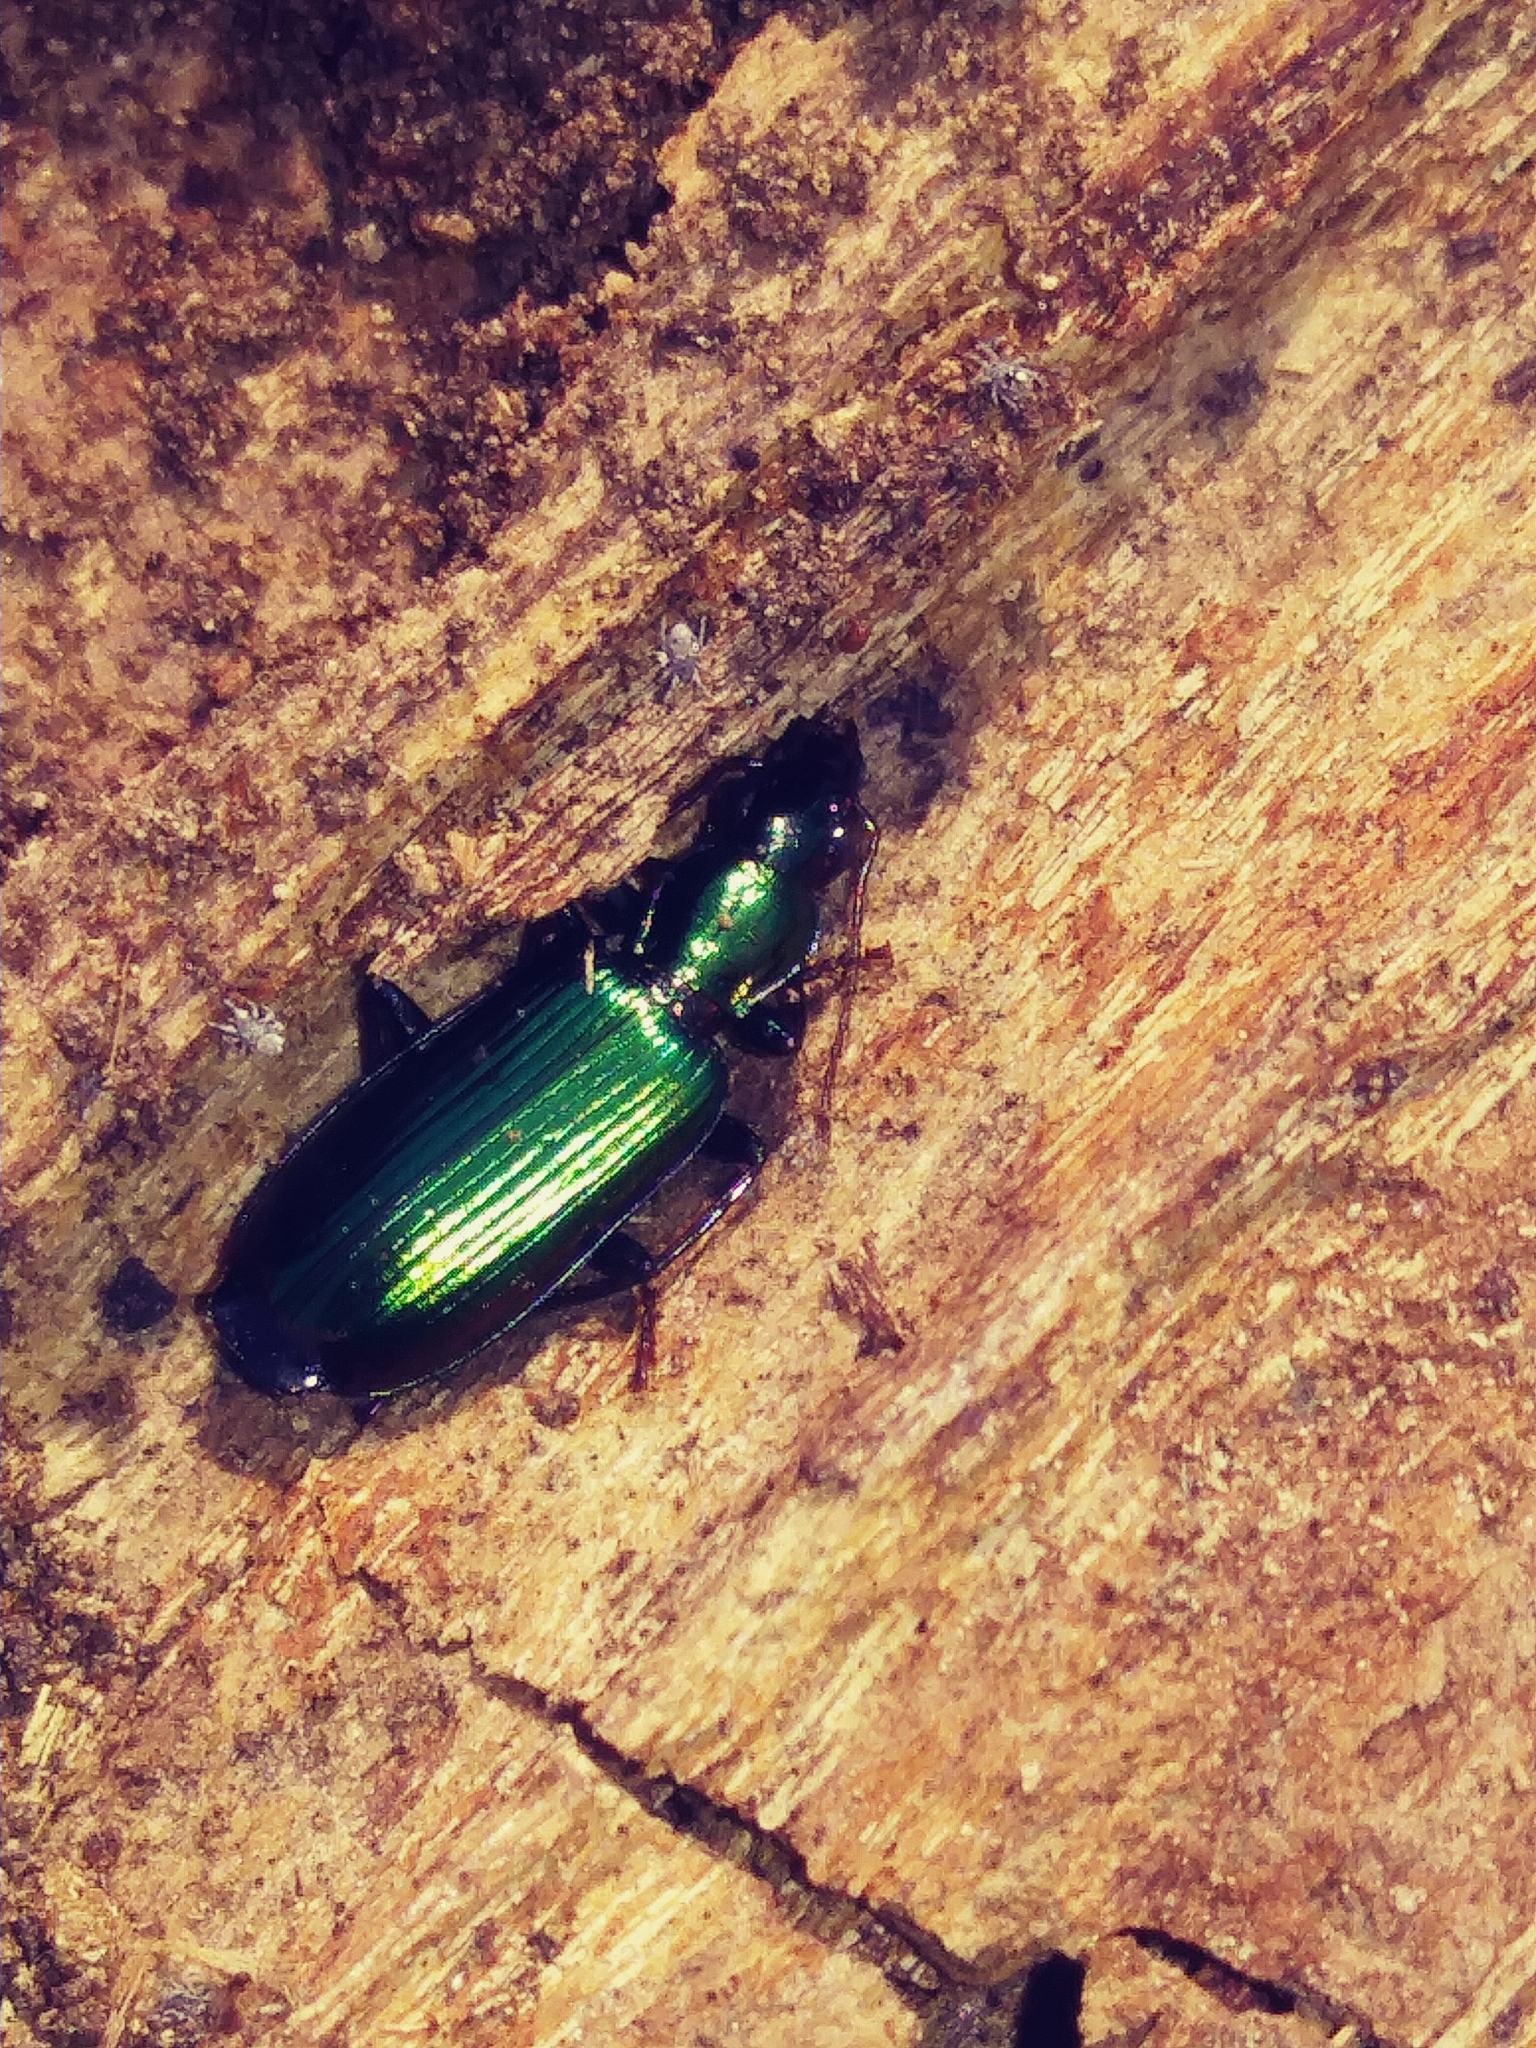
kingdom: Animalia
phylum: Arthropoda
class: Insecta
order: Coleoptera
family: Carabidae
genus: Calleida
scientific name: Calleida viridipennis
